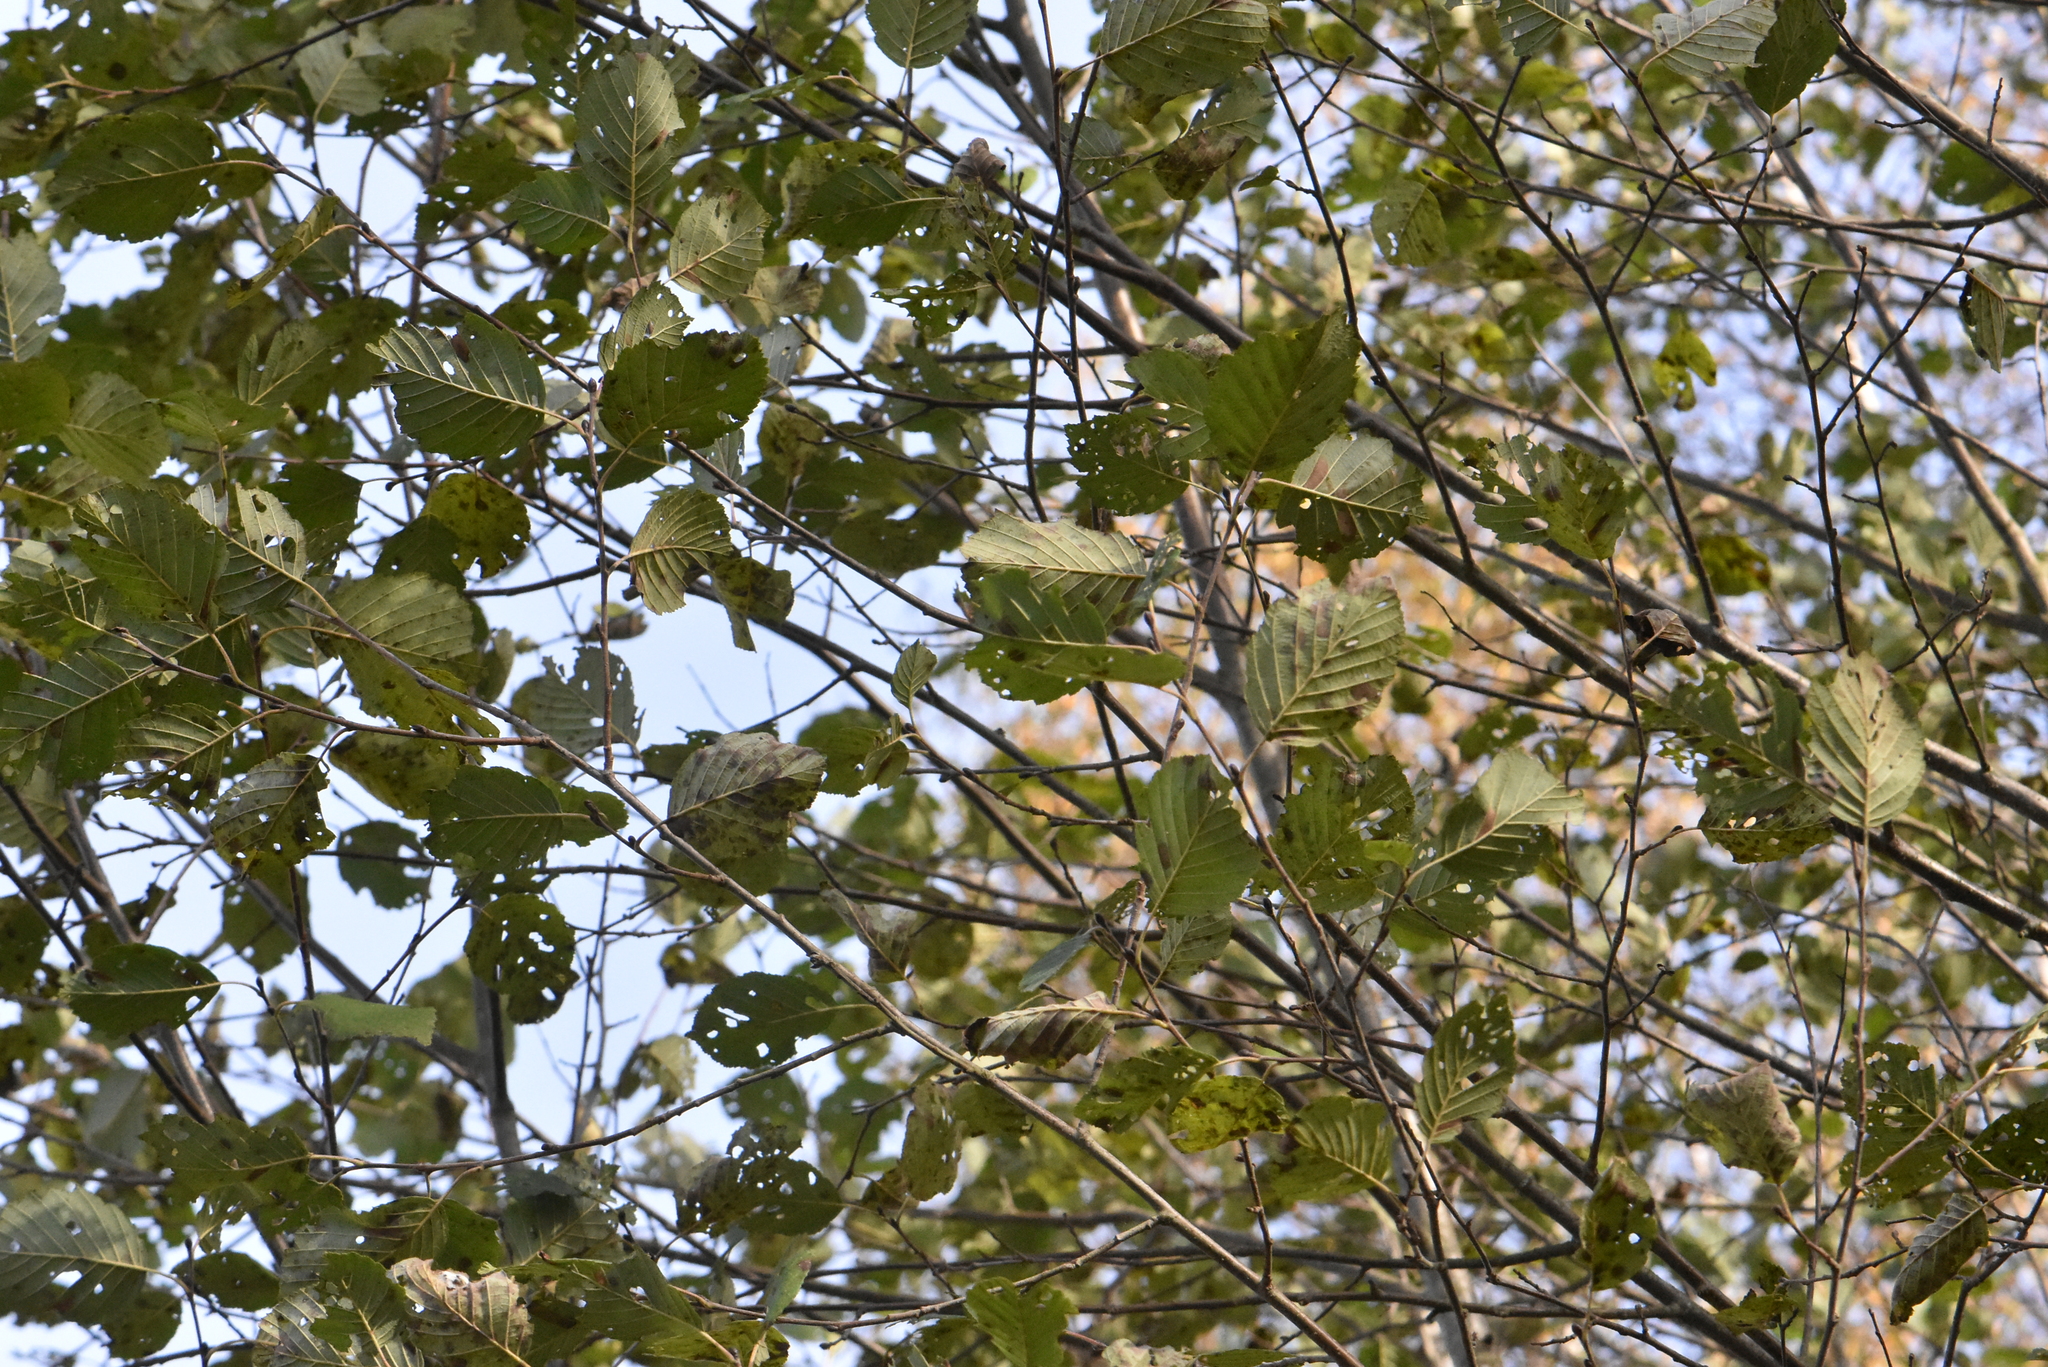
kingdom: Plantae
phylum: Tracheophyta
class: Magnoliopsida
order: Fagales
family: Betulaceae
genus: Alnus
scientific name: Alnus incana
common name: Grey alder
